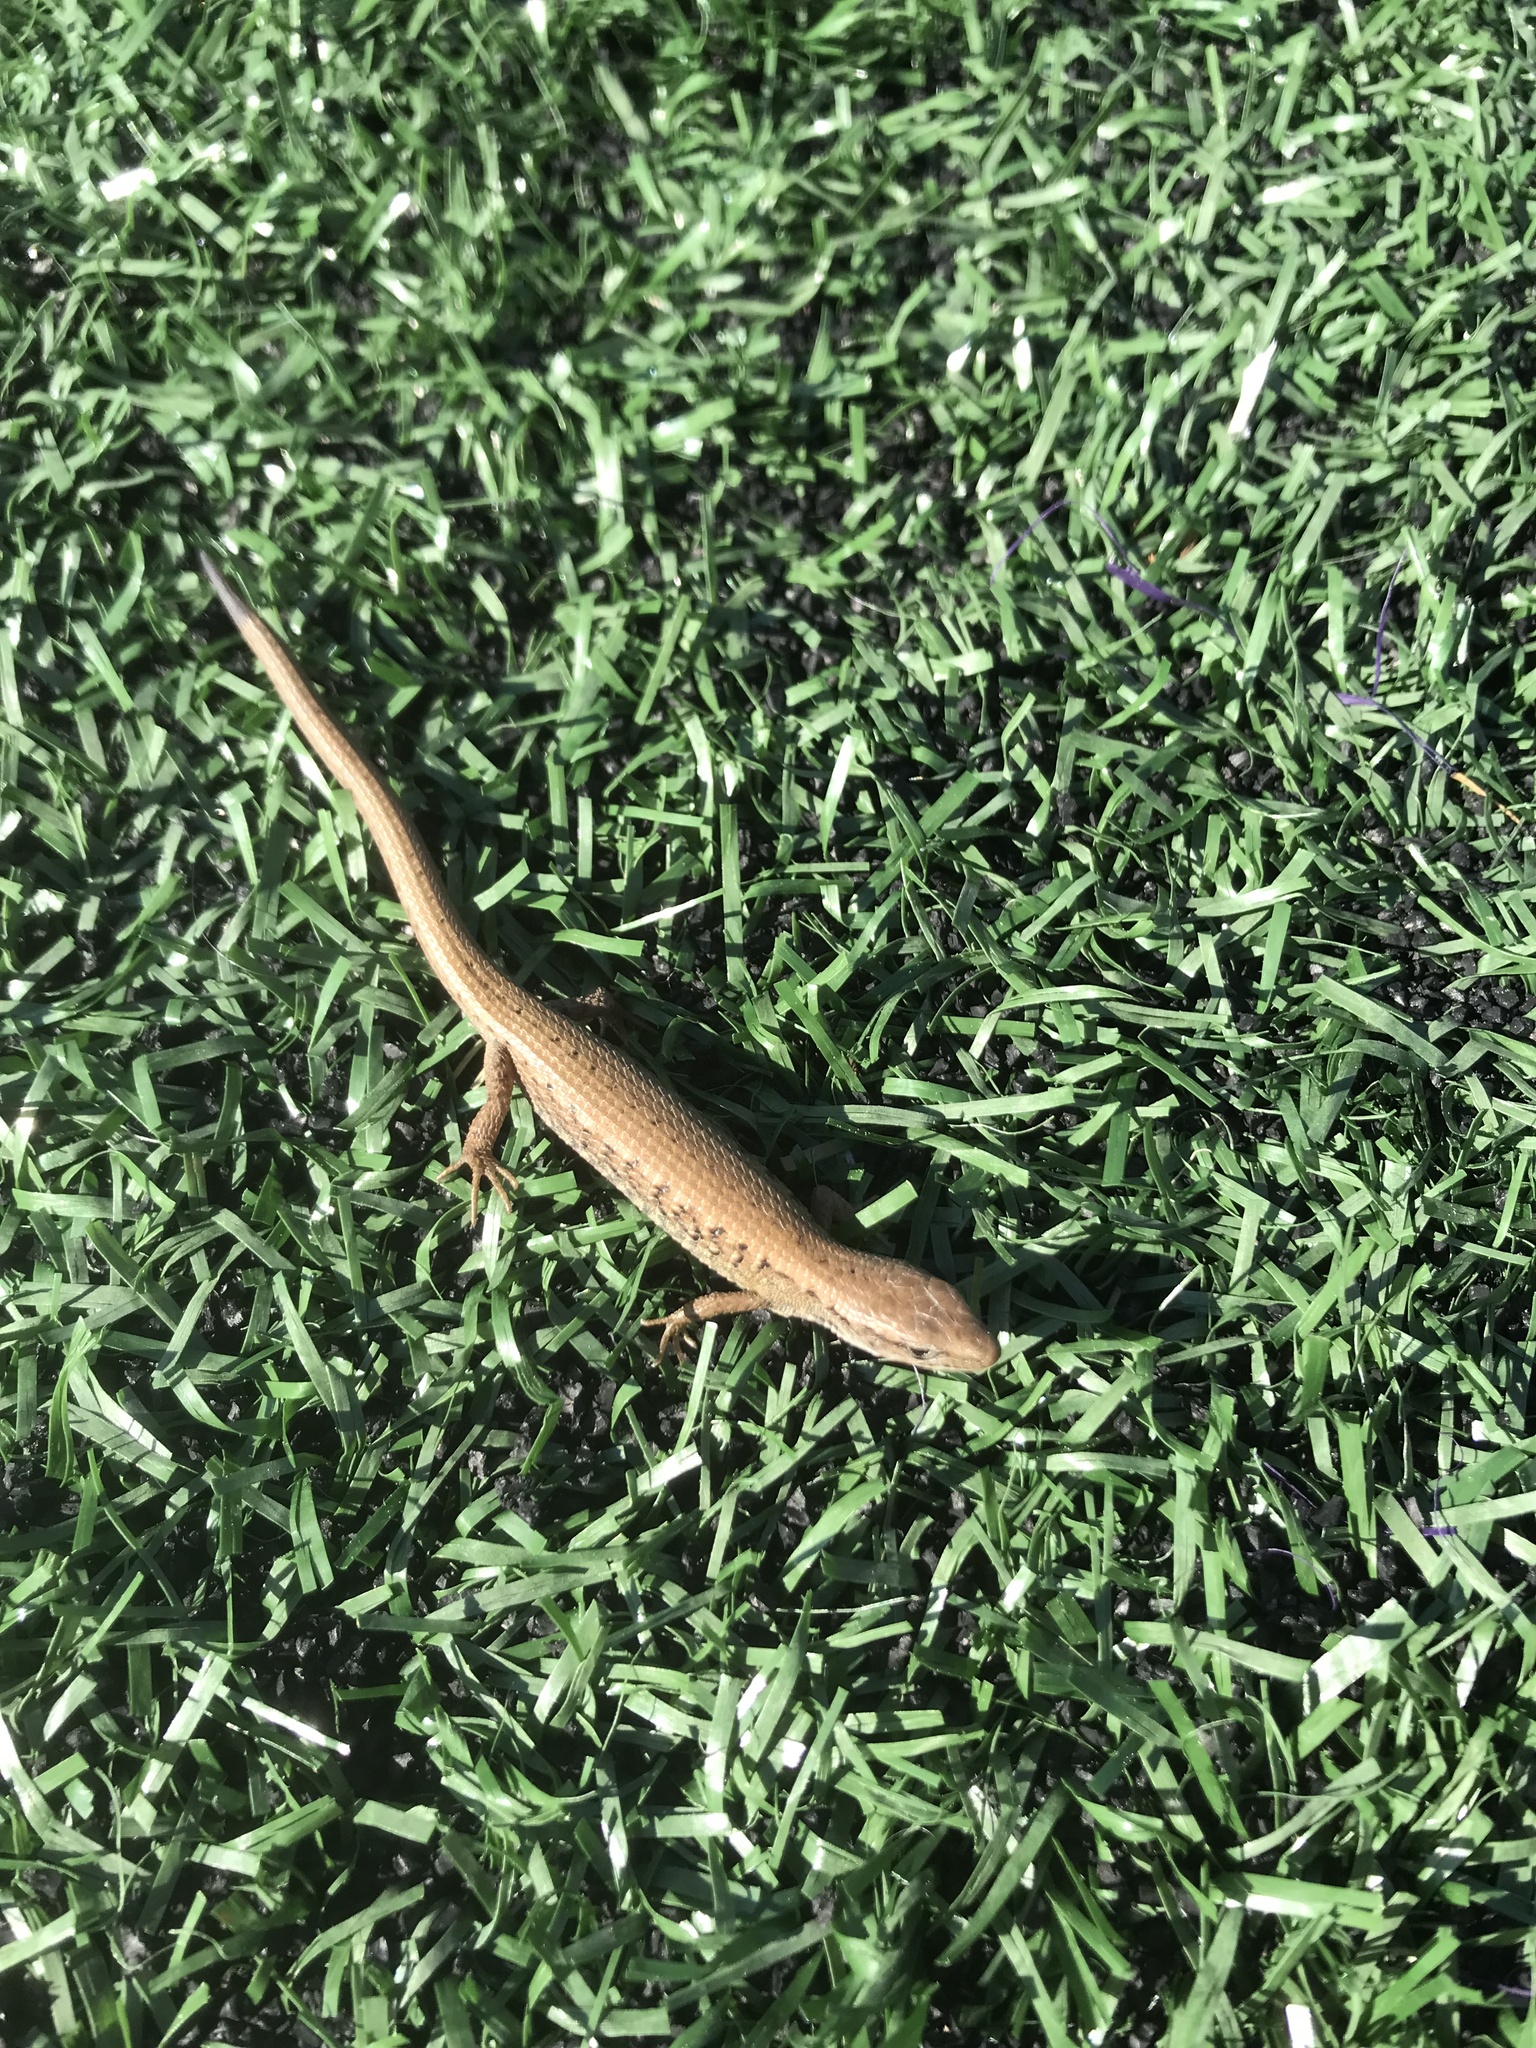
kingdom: Animalia
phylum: Chordata
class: Squamata
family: Anguidae
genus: Elgaria
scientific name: Elgaria coerulea
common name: Northern alligator lizard
